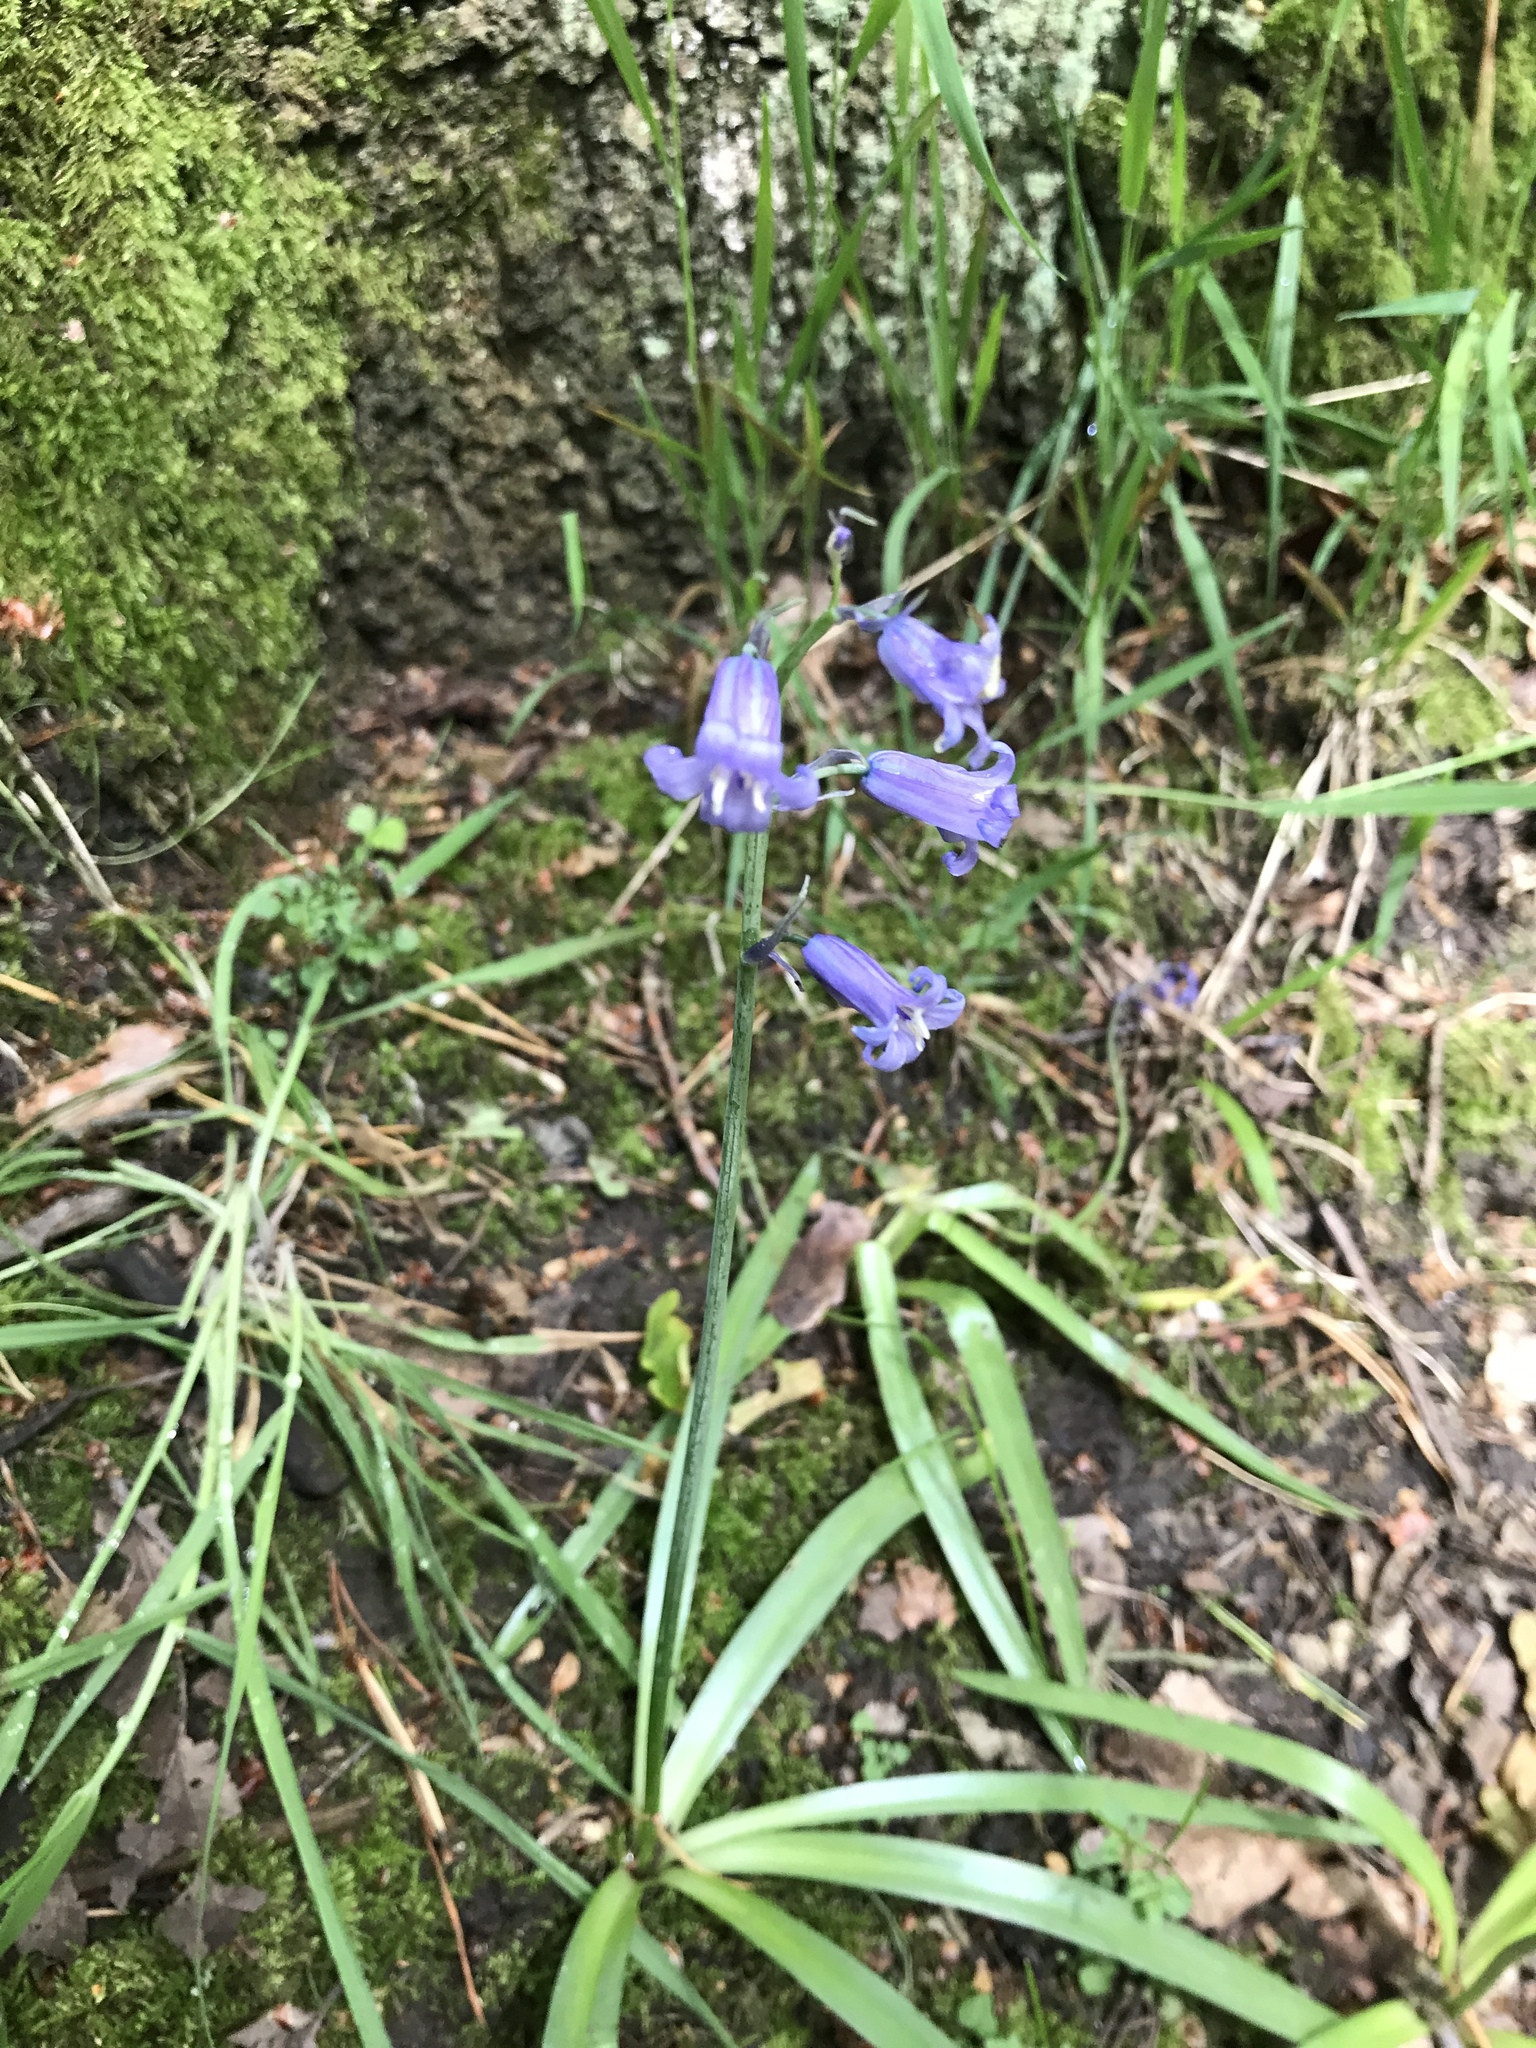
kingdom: Plantae
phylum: Tracheophyta
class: Liliopsida
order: Asparagales
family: Asparagaceae
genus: Hyacinthoides
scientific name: Hyacinthoides non-scripta
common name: Bluebell
